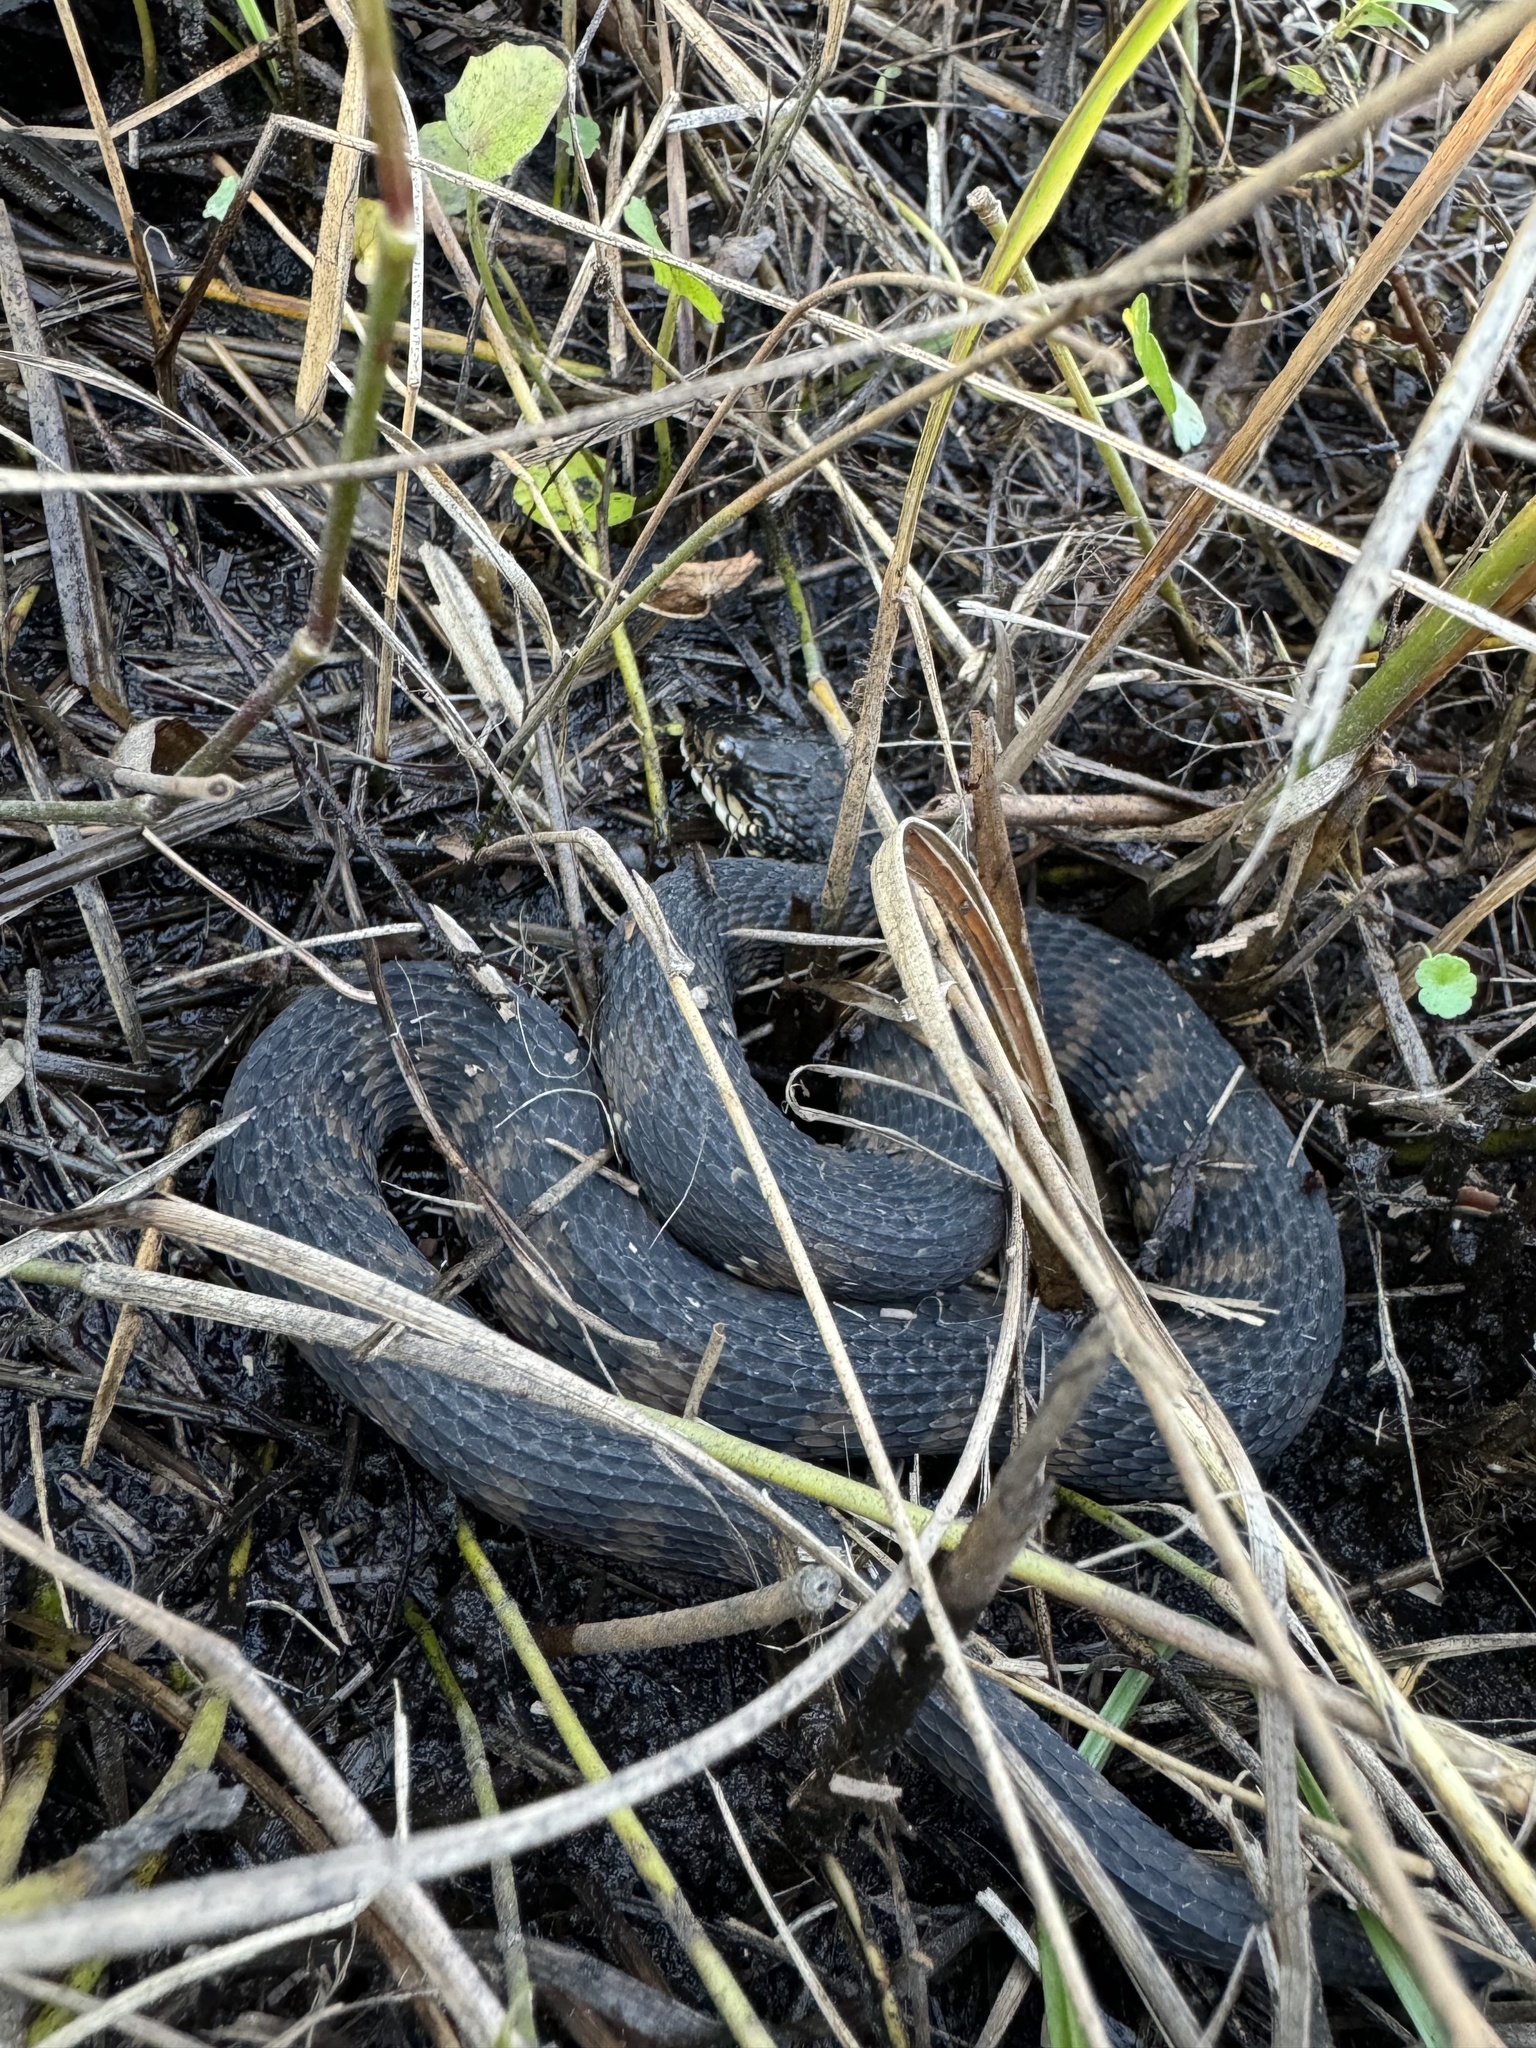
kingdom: Animalia
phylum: Chordata
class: Squamata
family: Colubridae
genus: Nerodia
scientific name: Nerodia fasciata
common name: Southern water snake
